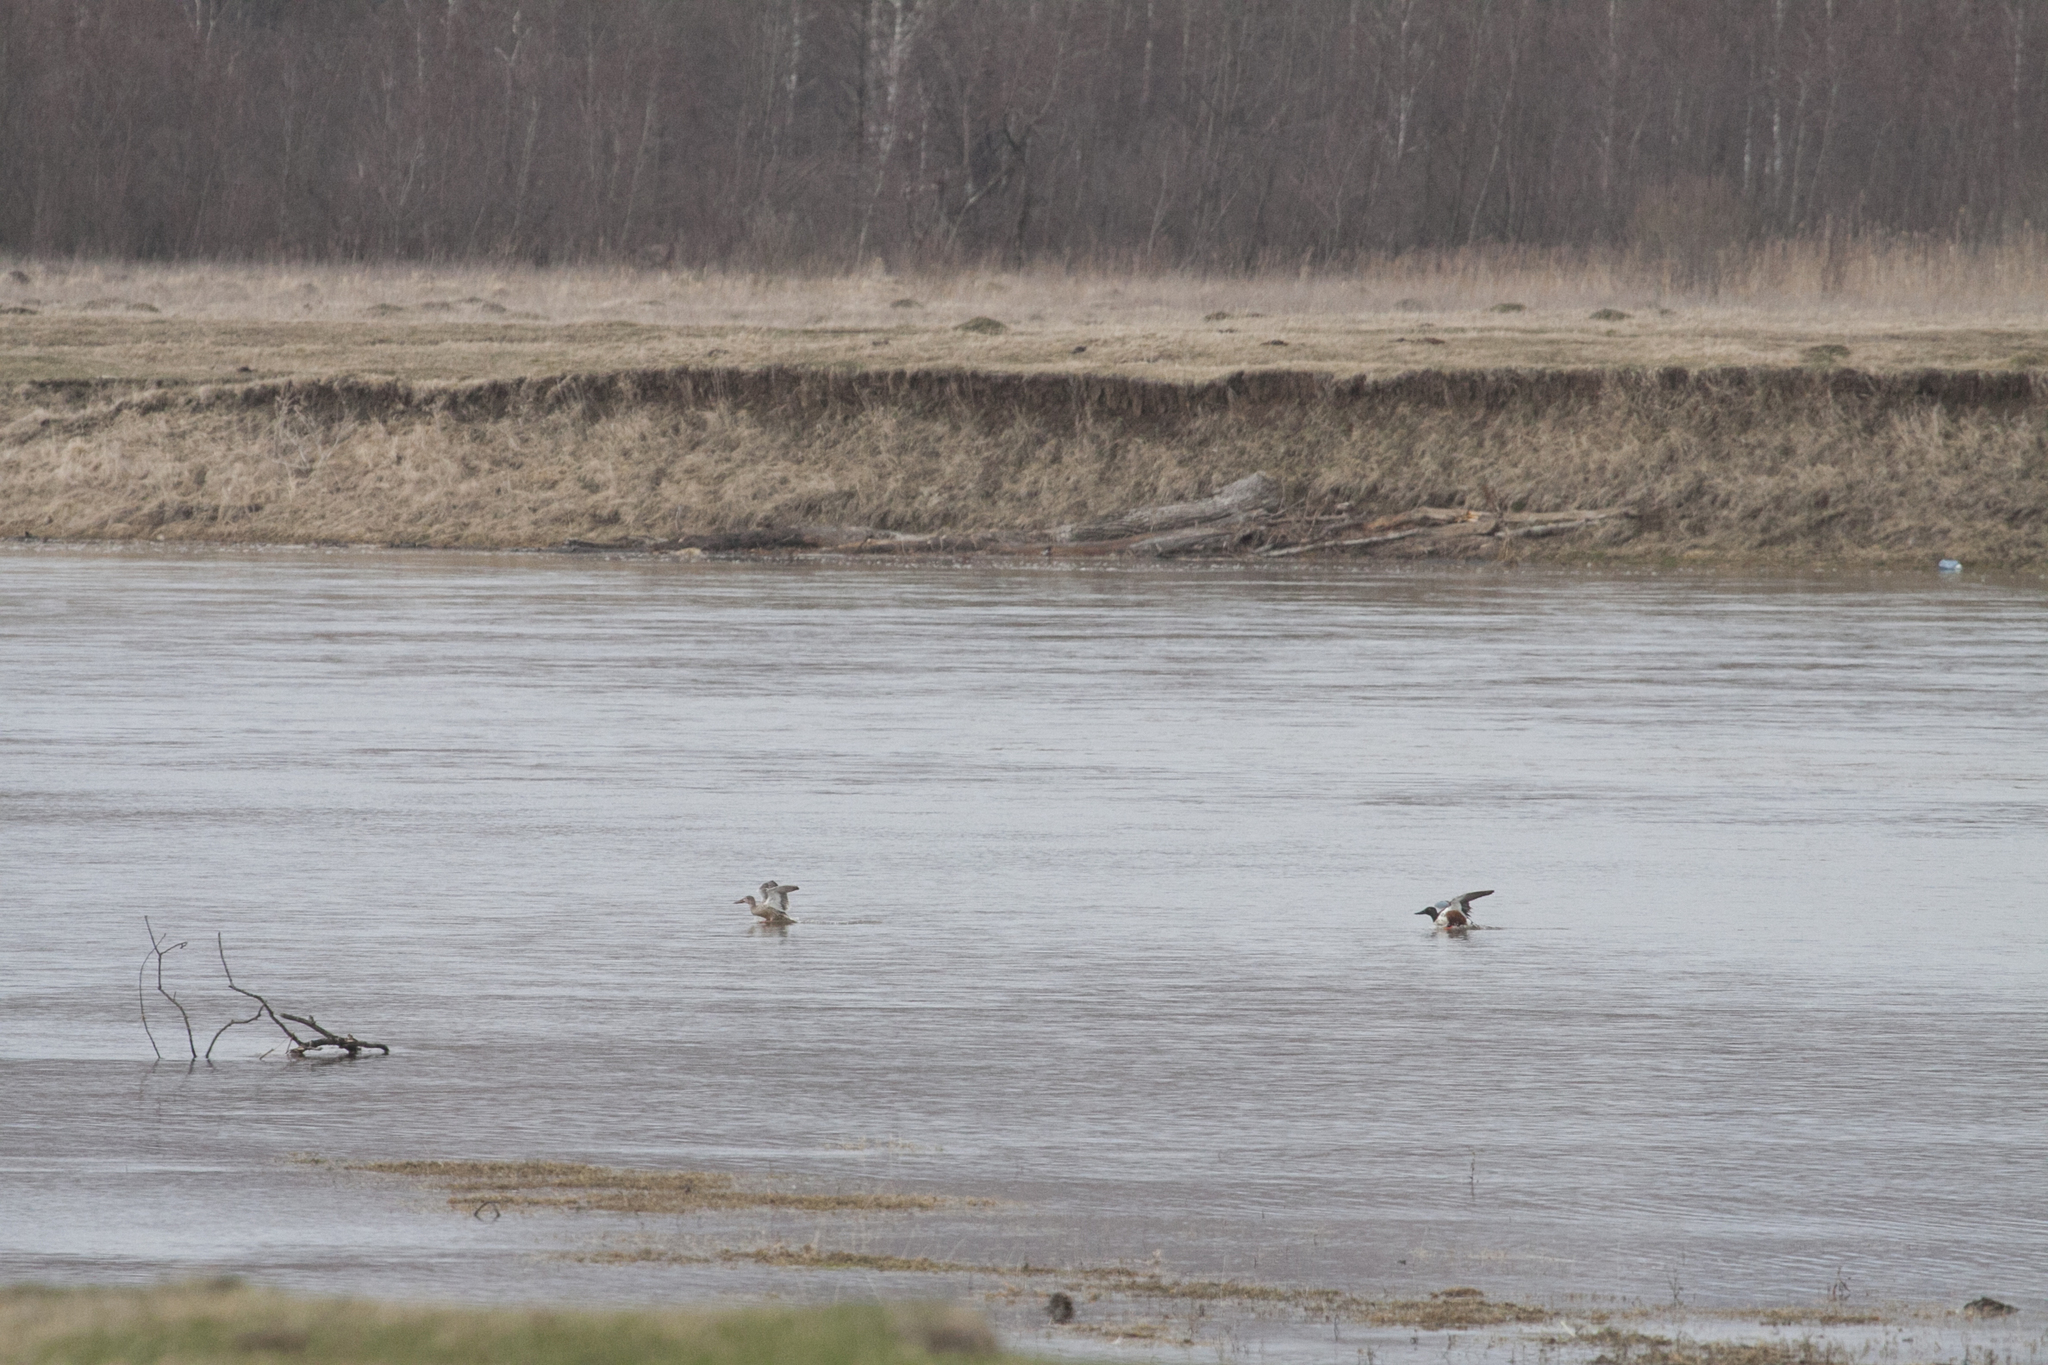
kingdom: Animalia
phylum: Chordata
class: Aves
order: Anseriformes
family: Anatidae
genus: Spatula
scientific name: Spatula clypeata
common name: Northern shoveler
